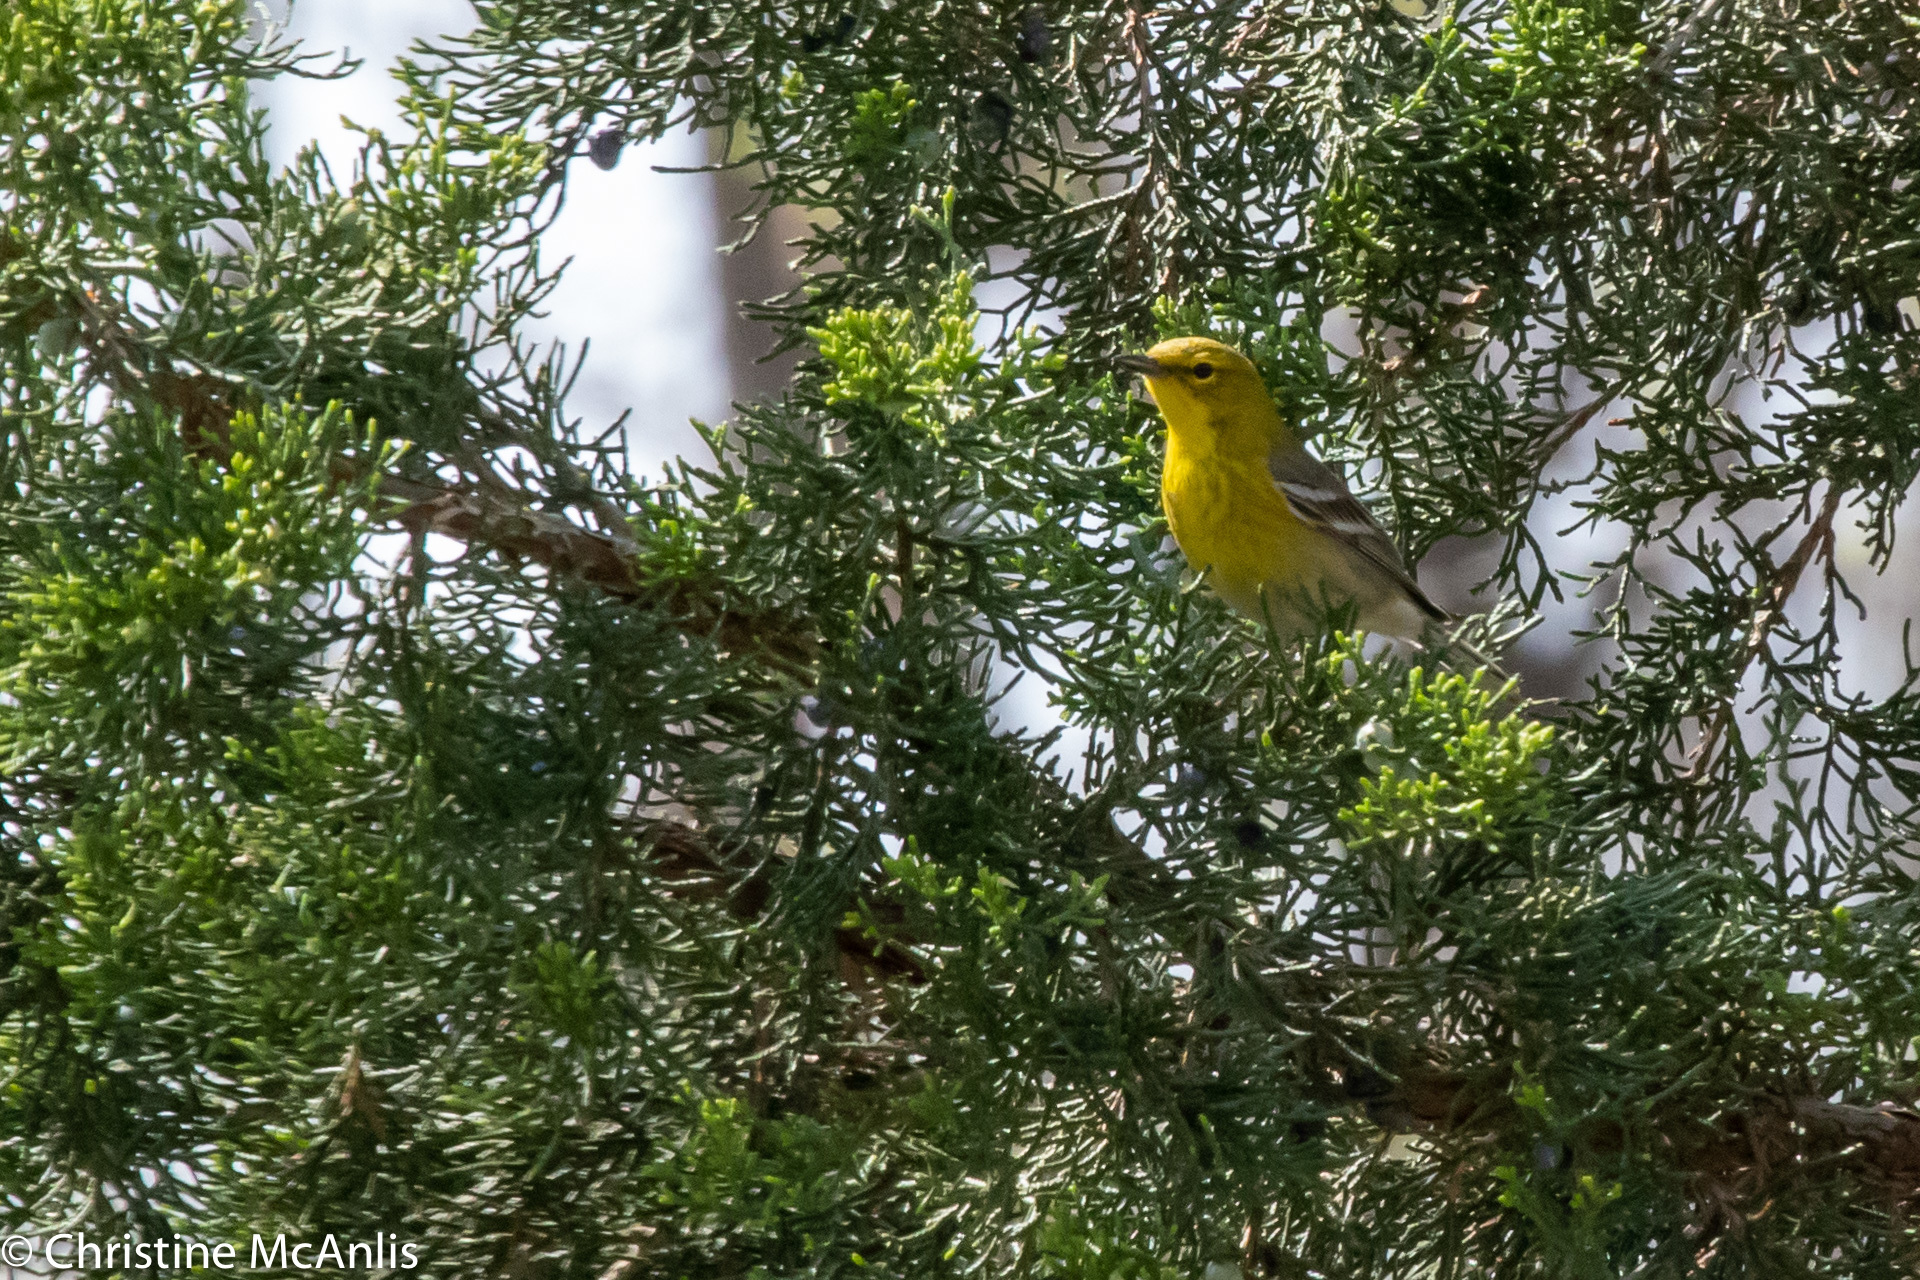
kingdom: Animalia
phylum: Chordata
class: Aves
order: Passeriformes
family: Parulidae
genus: Setophaga
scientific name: Setophaga pinus
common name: Pine warbler
